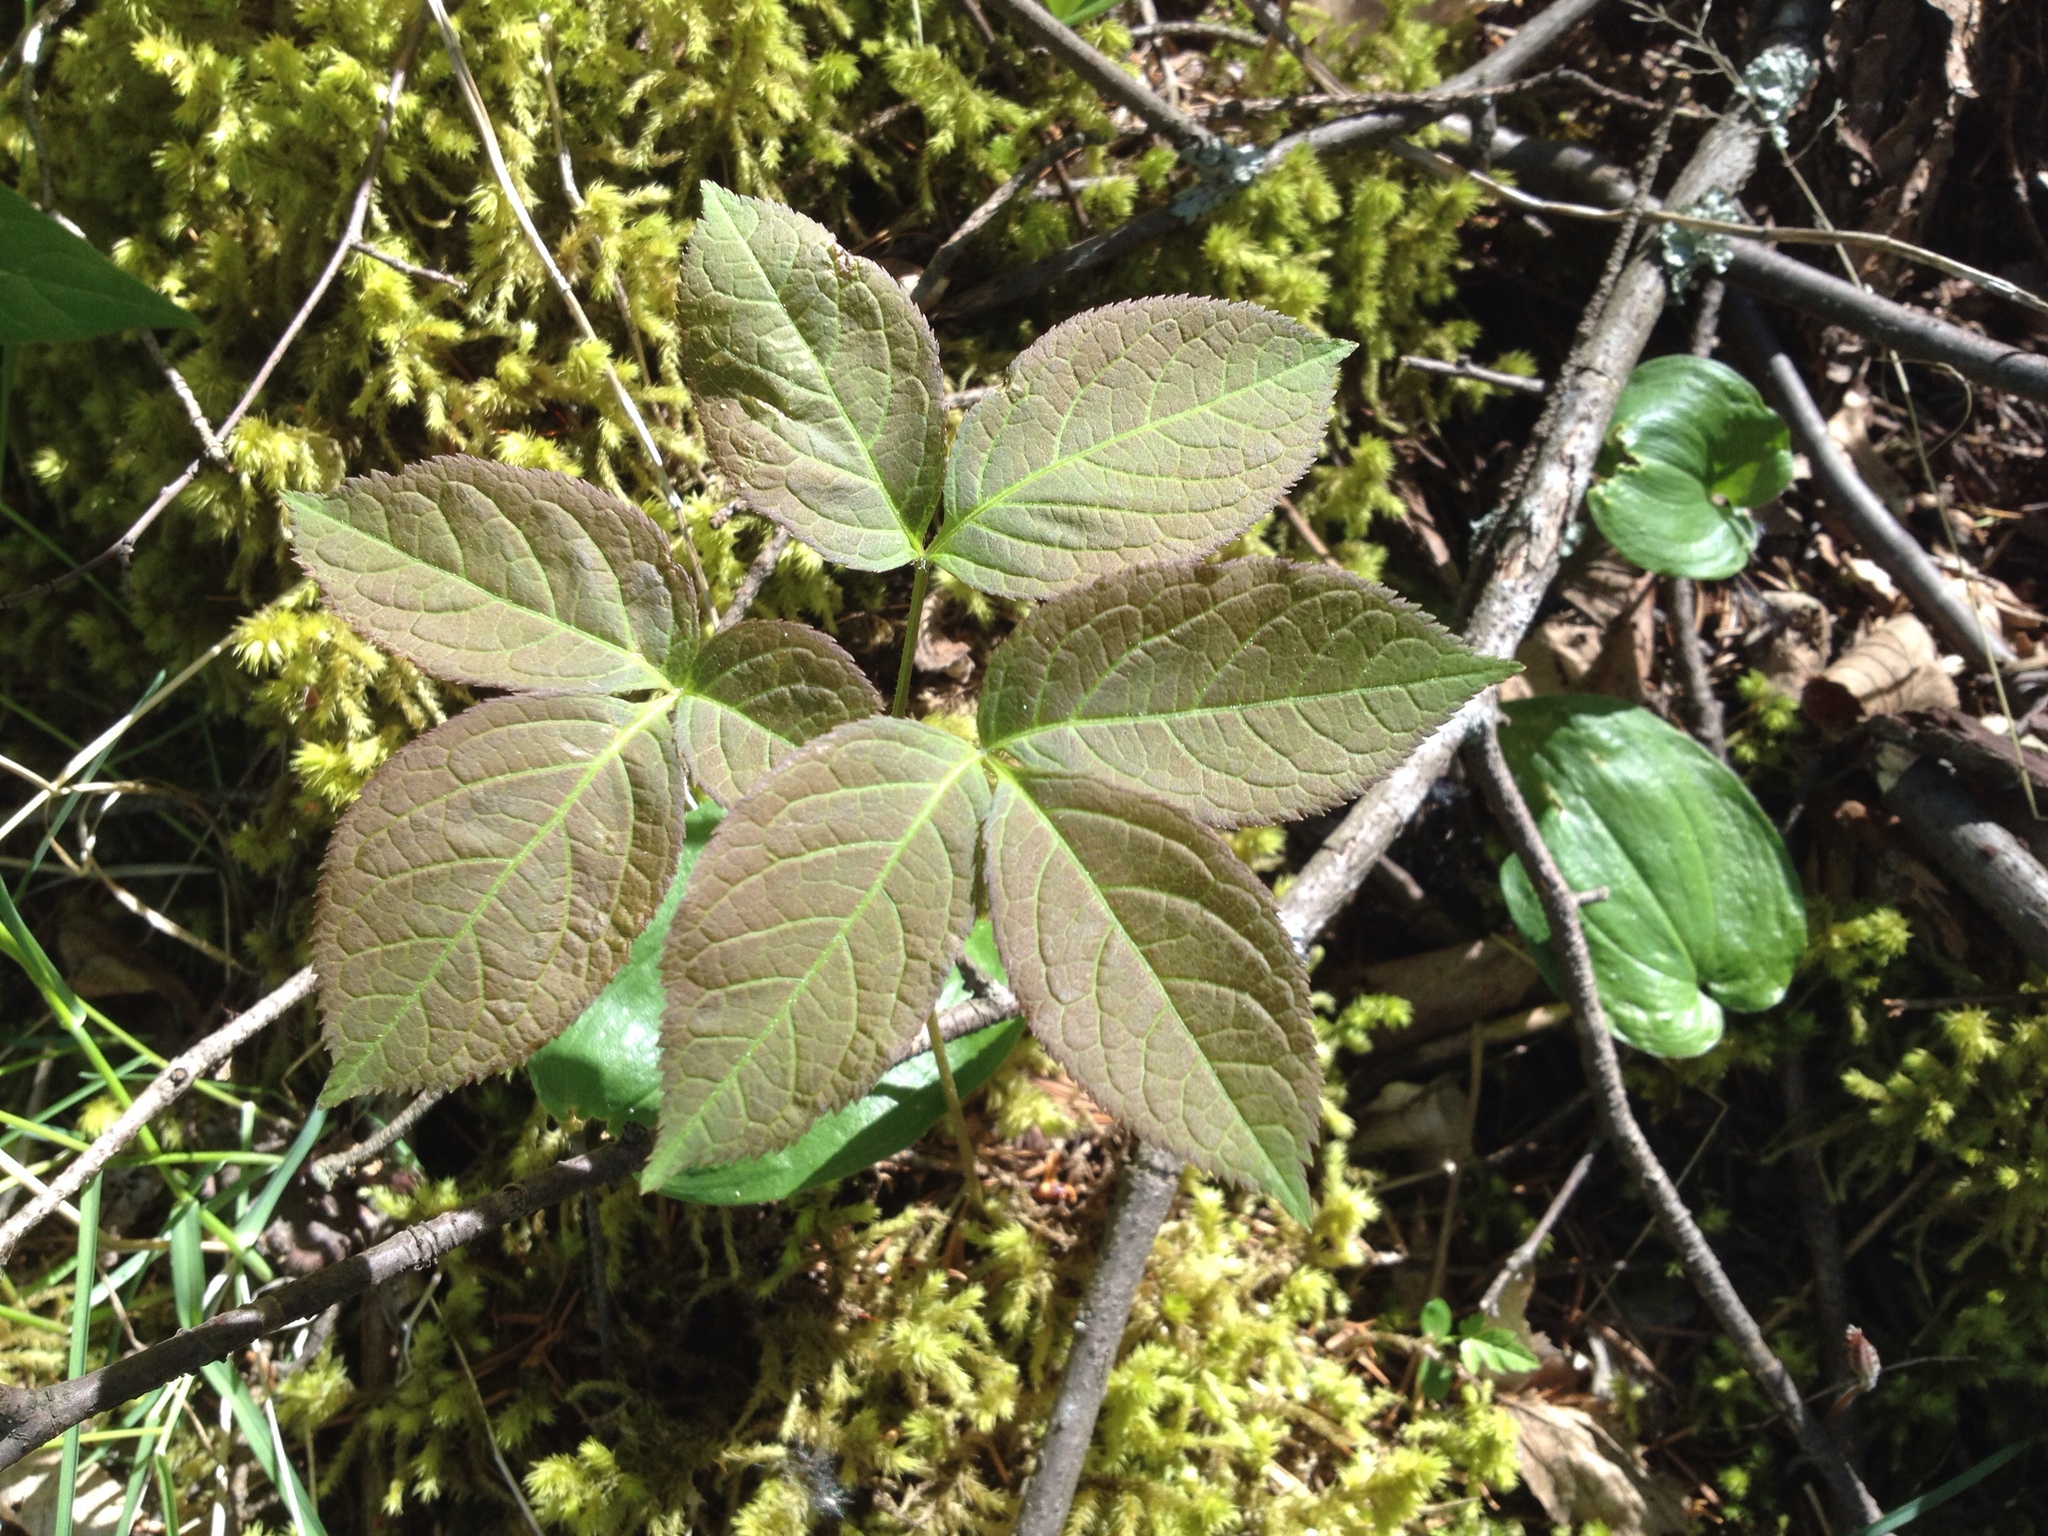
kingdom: Plantae
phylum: Tracheophyta
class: Magnoliopsida
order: Apiales
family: Araliaceae
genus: Aralia
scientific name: Aralia nudicaulis
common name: Wild sarsaparilla
